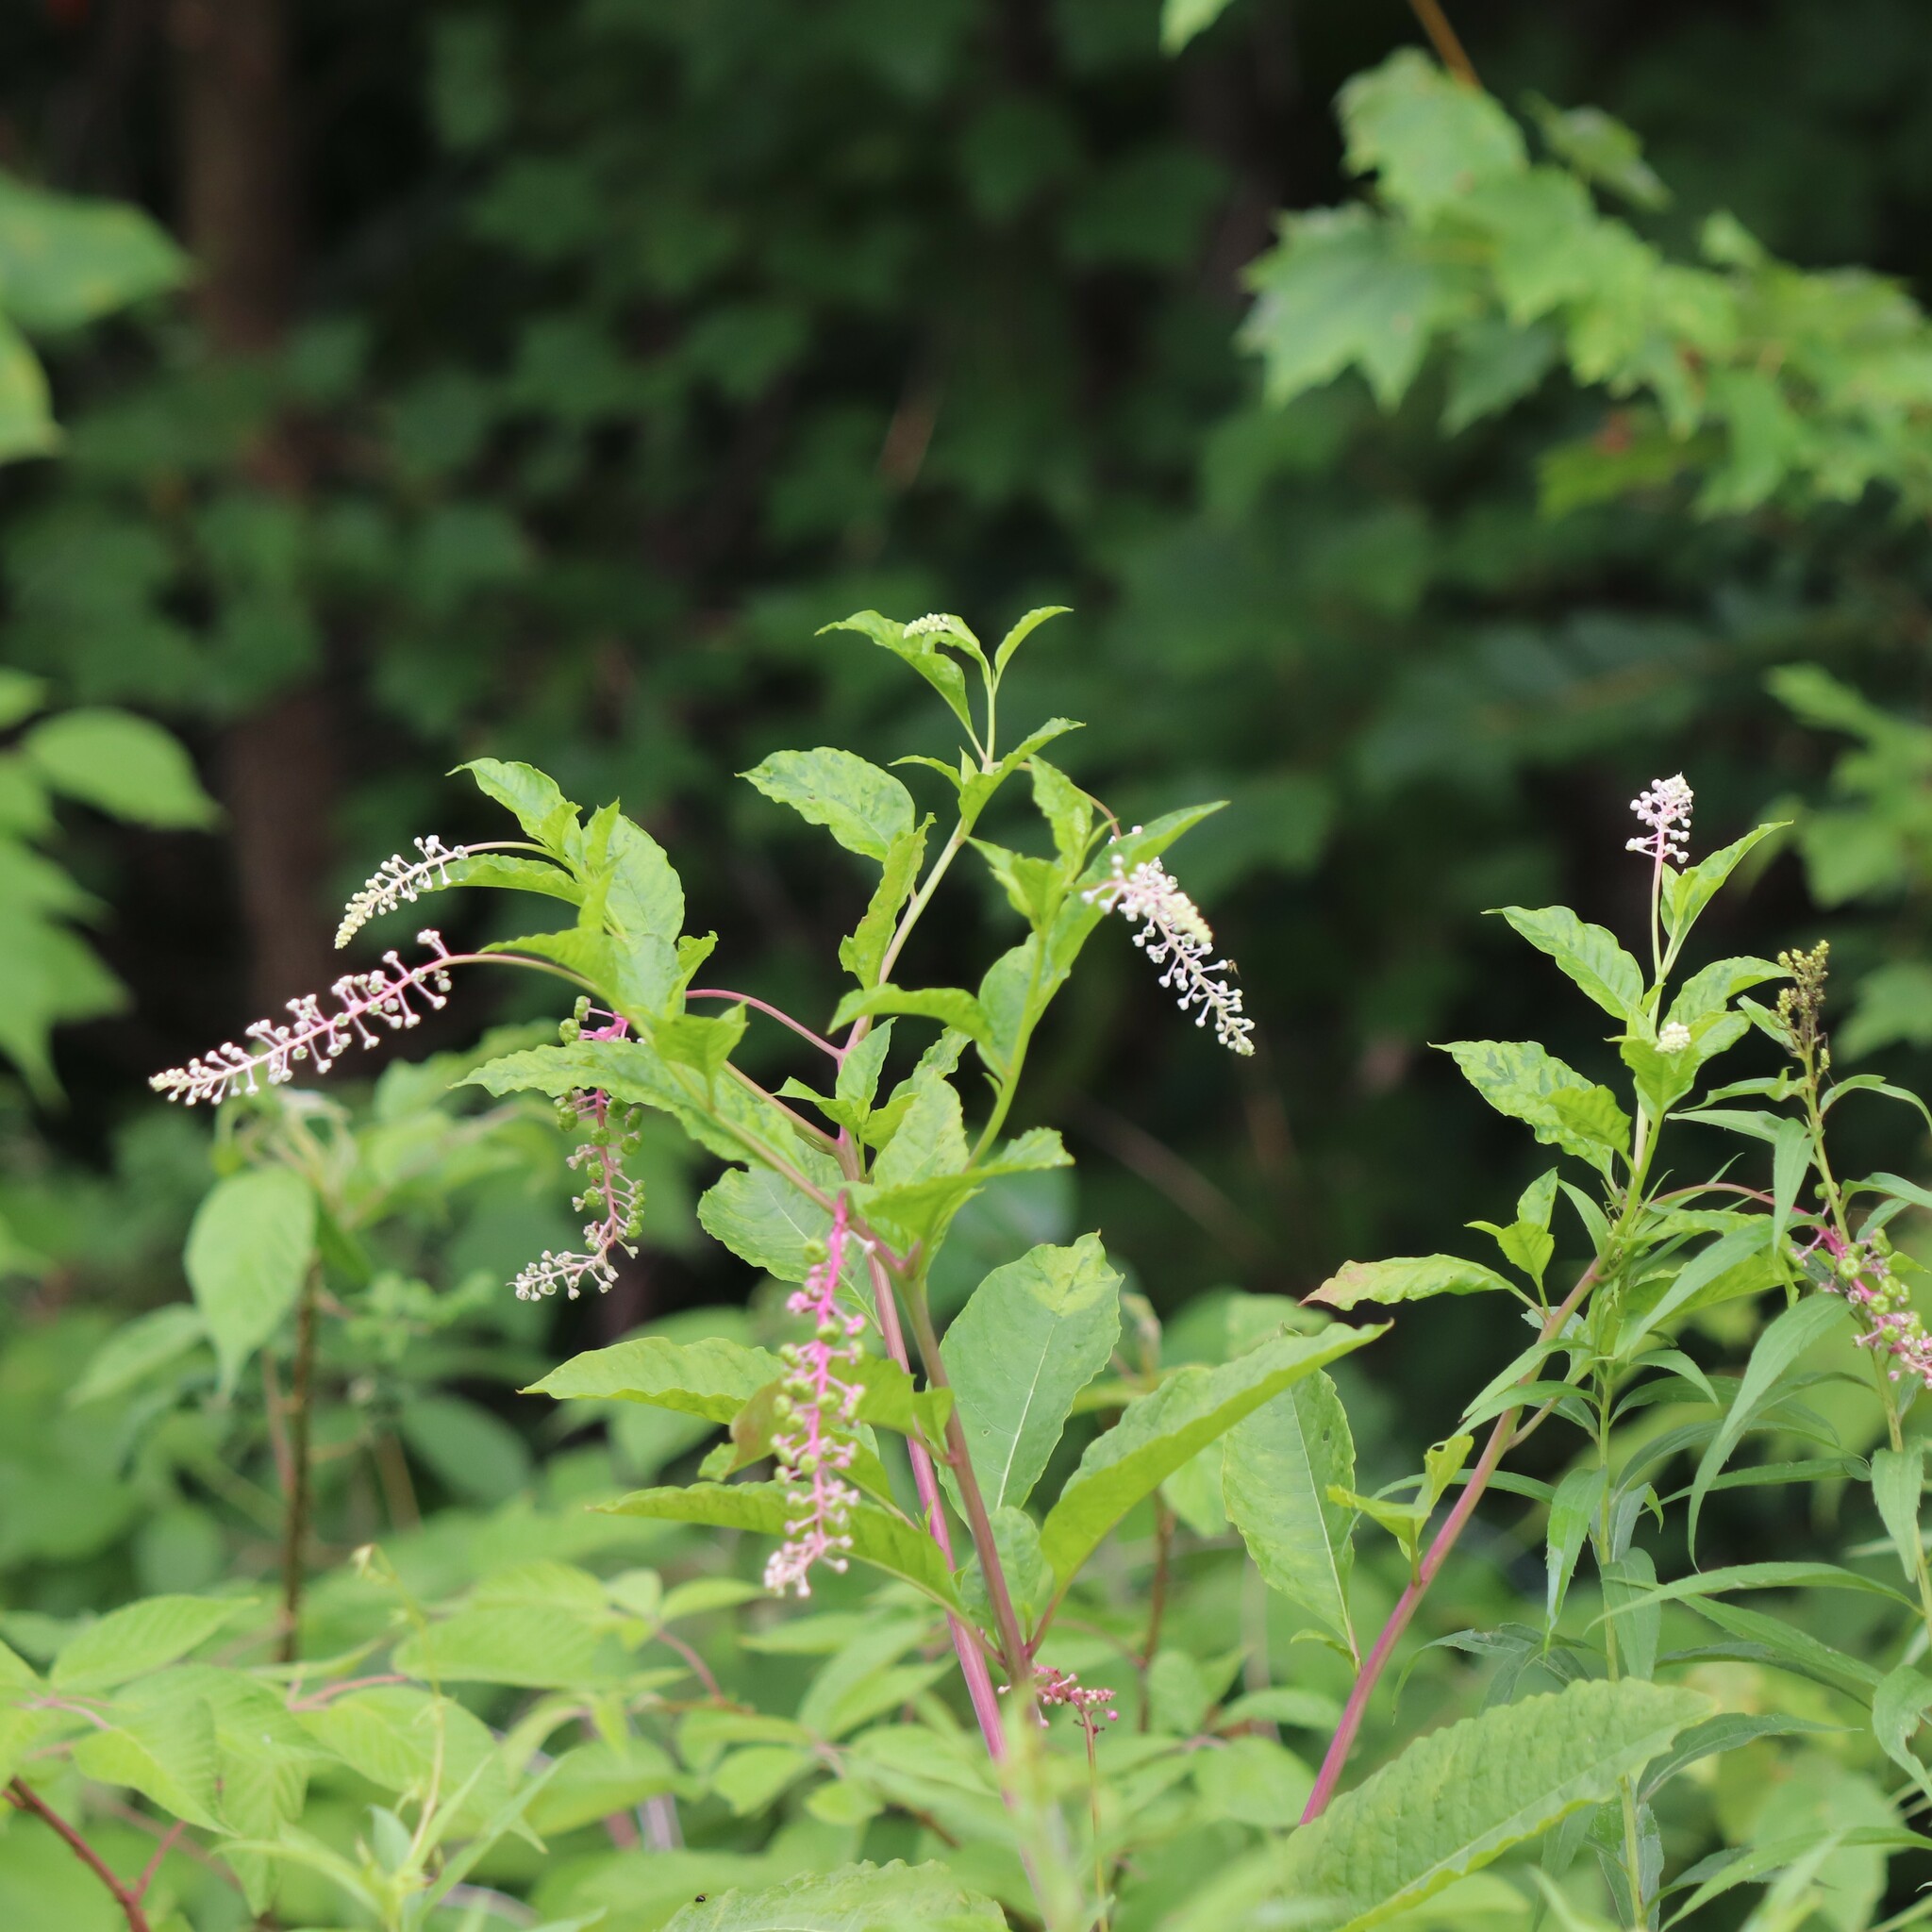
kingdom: Plantae
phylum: Tracheophyta
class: Magnoliopsida
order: Caryophyllales
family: Phytolaccaceae
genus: Phytolacca
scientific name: Phytolacca americana
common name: American pokeweed
